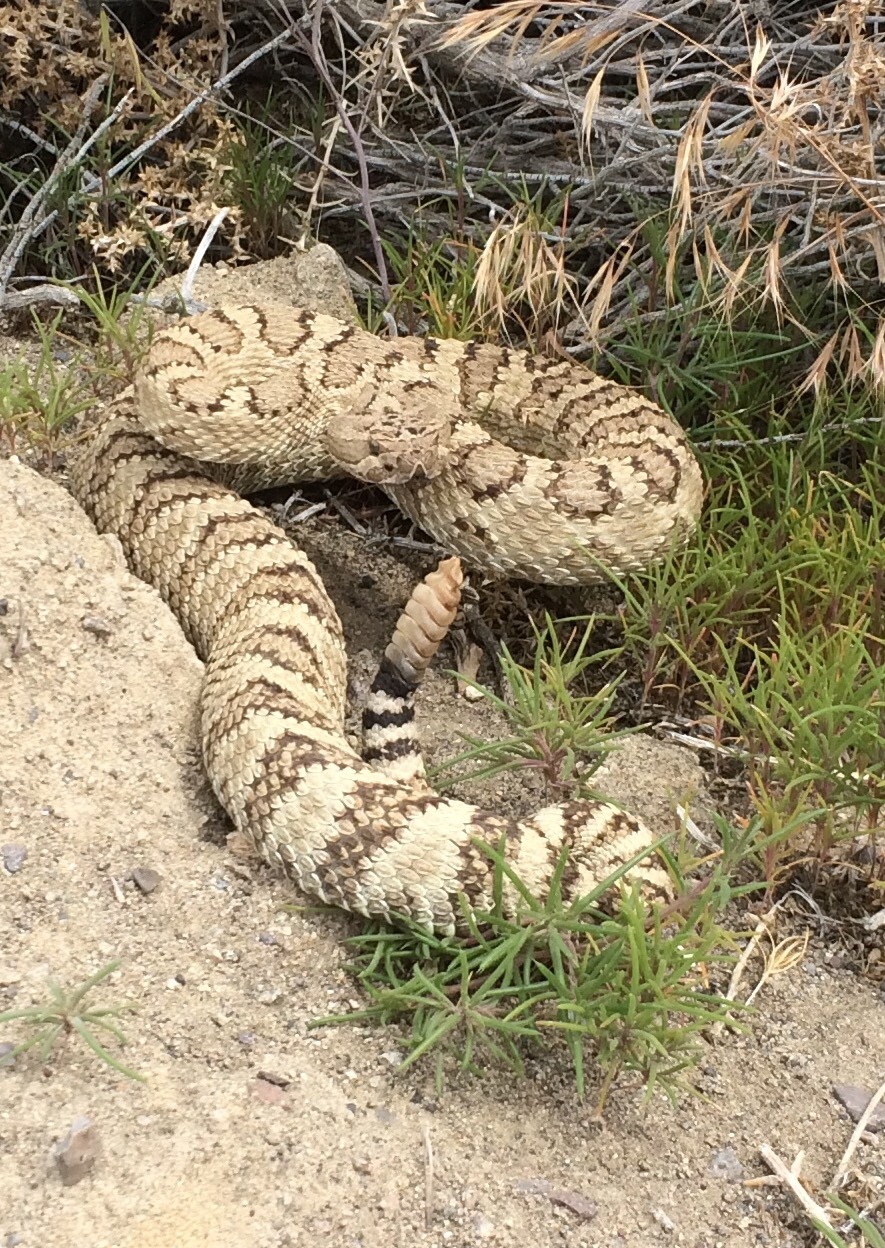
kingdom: Animalia
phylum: Chordata
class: Squamata
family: Viperidae
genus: Crotalus
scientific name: Crotalus oreganus
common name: Abyssus
